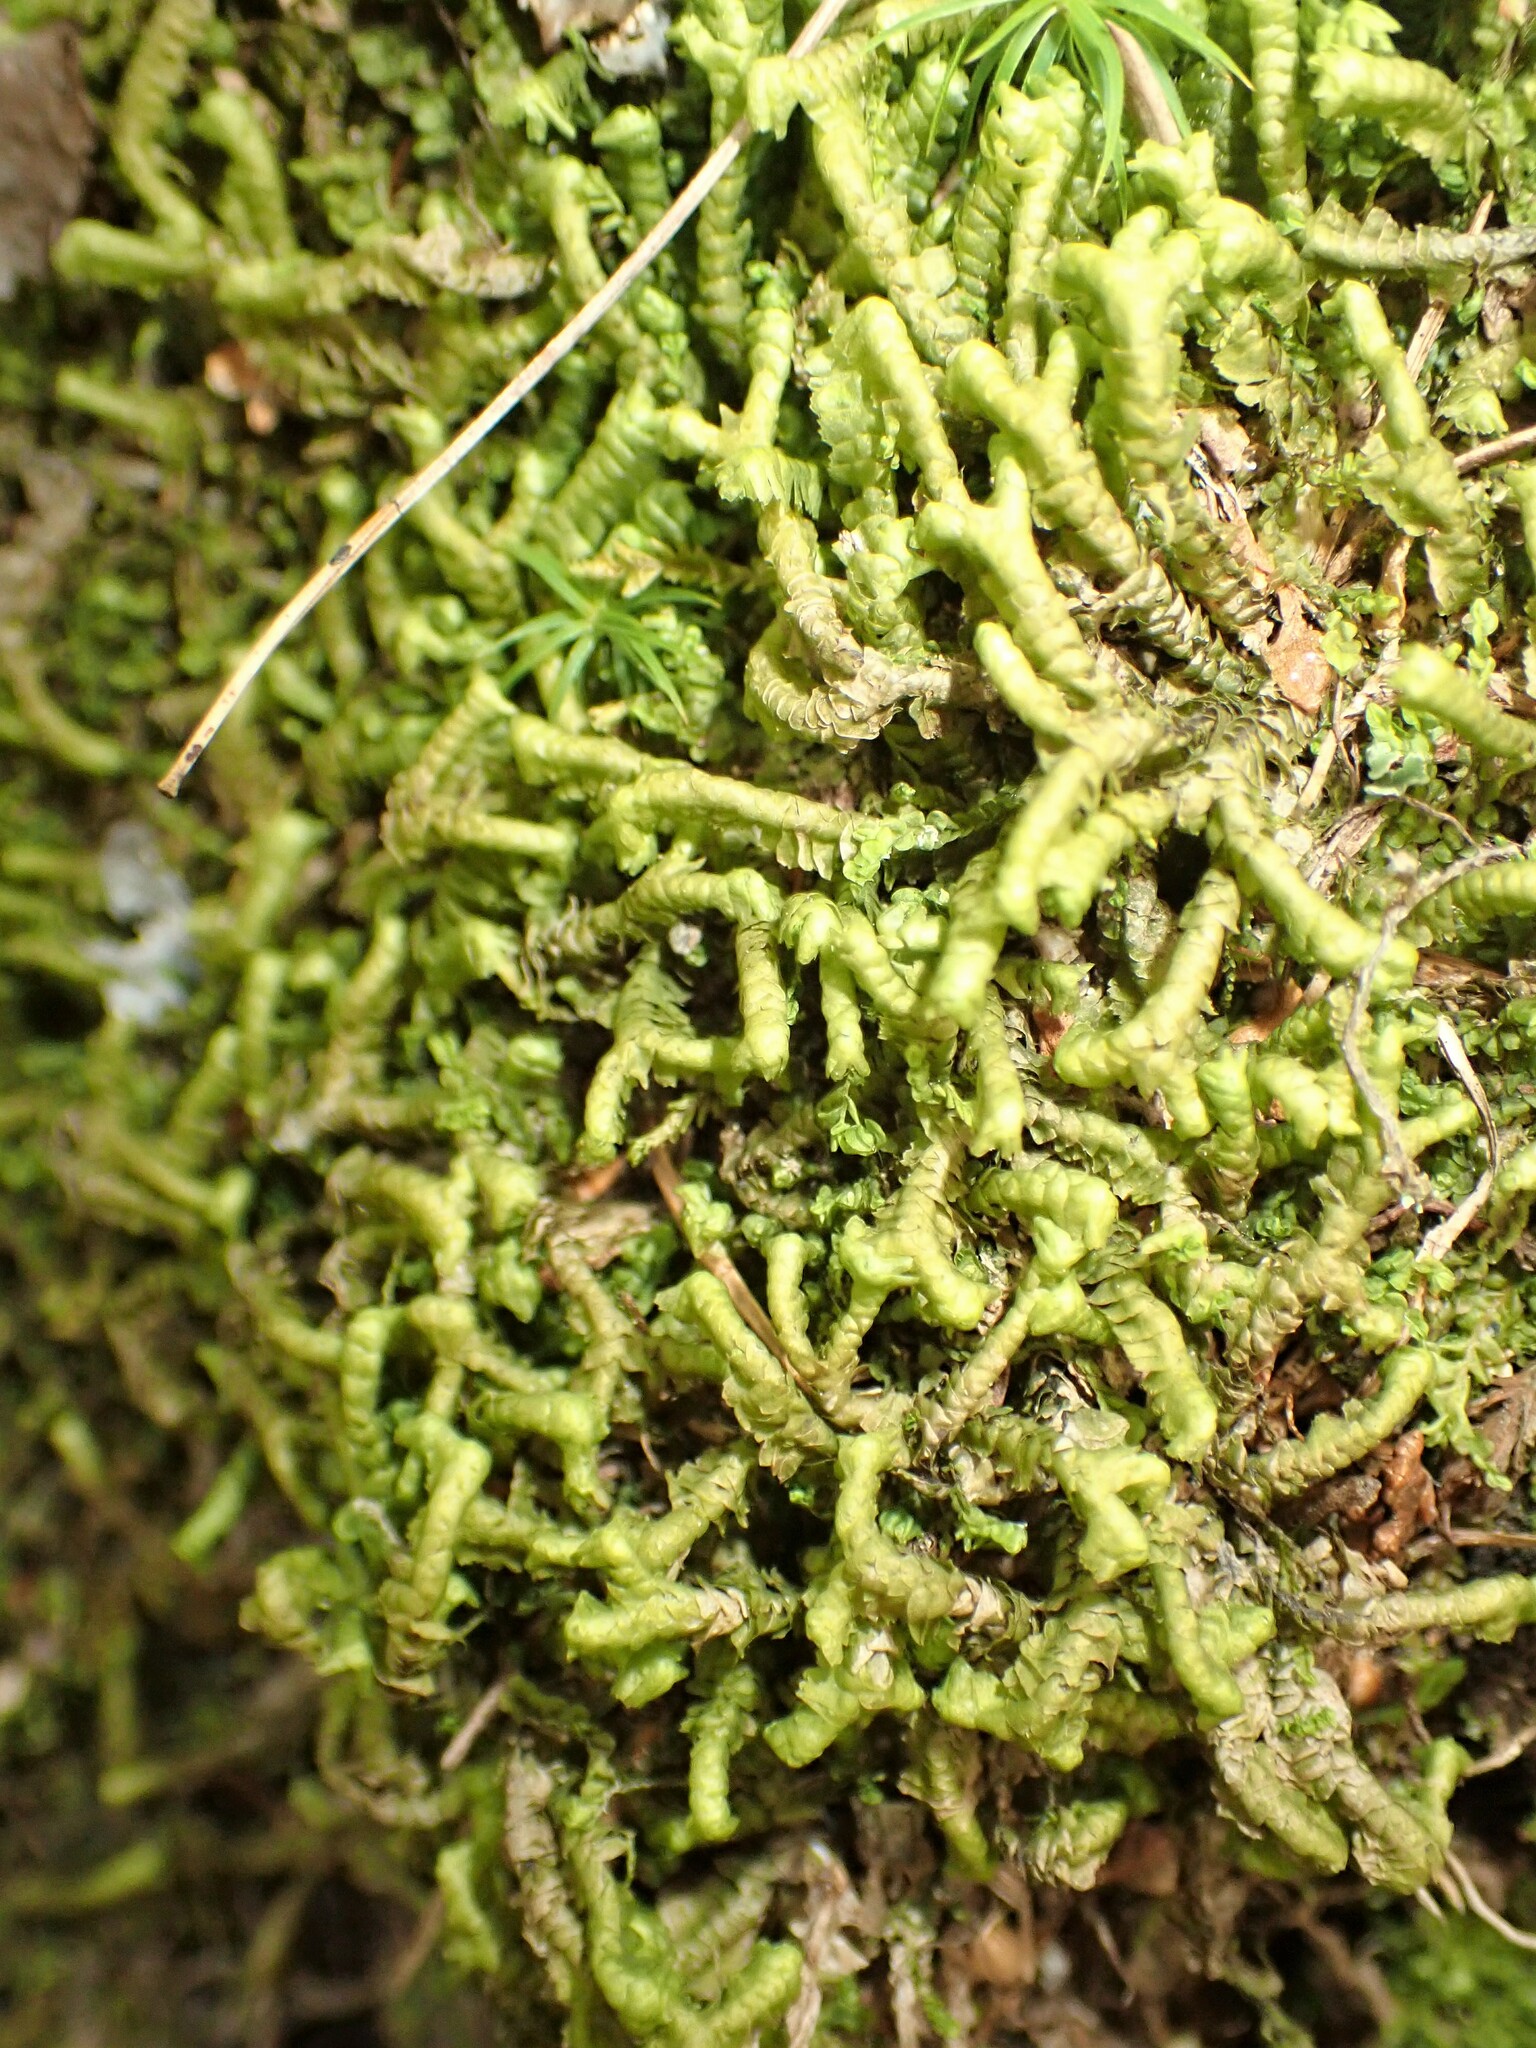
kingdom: Plantae
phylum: Marchantiophyta
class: Jungermanniopsida
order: Jungermanniales
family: Lepidoziaceae
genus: Bazzania
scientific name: Bazzania trilobata
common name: Three-lobed whipwort
